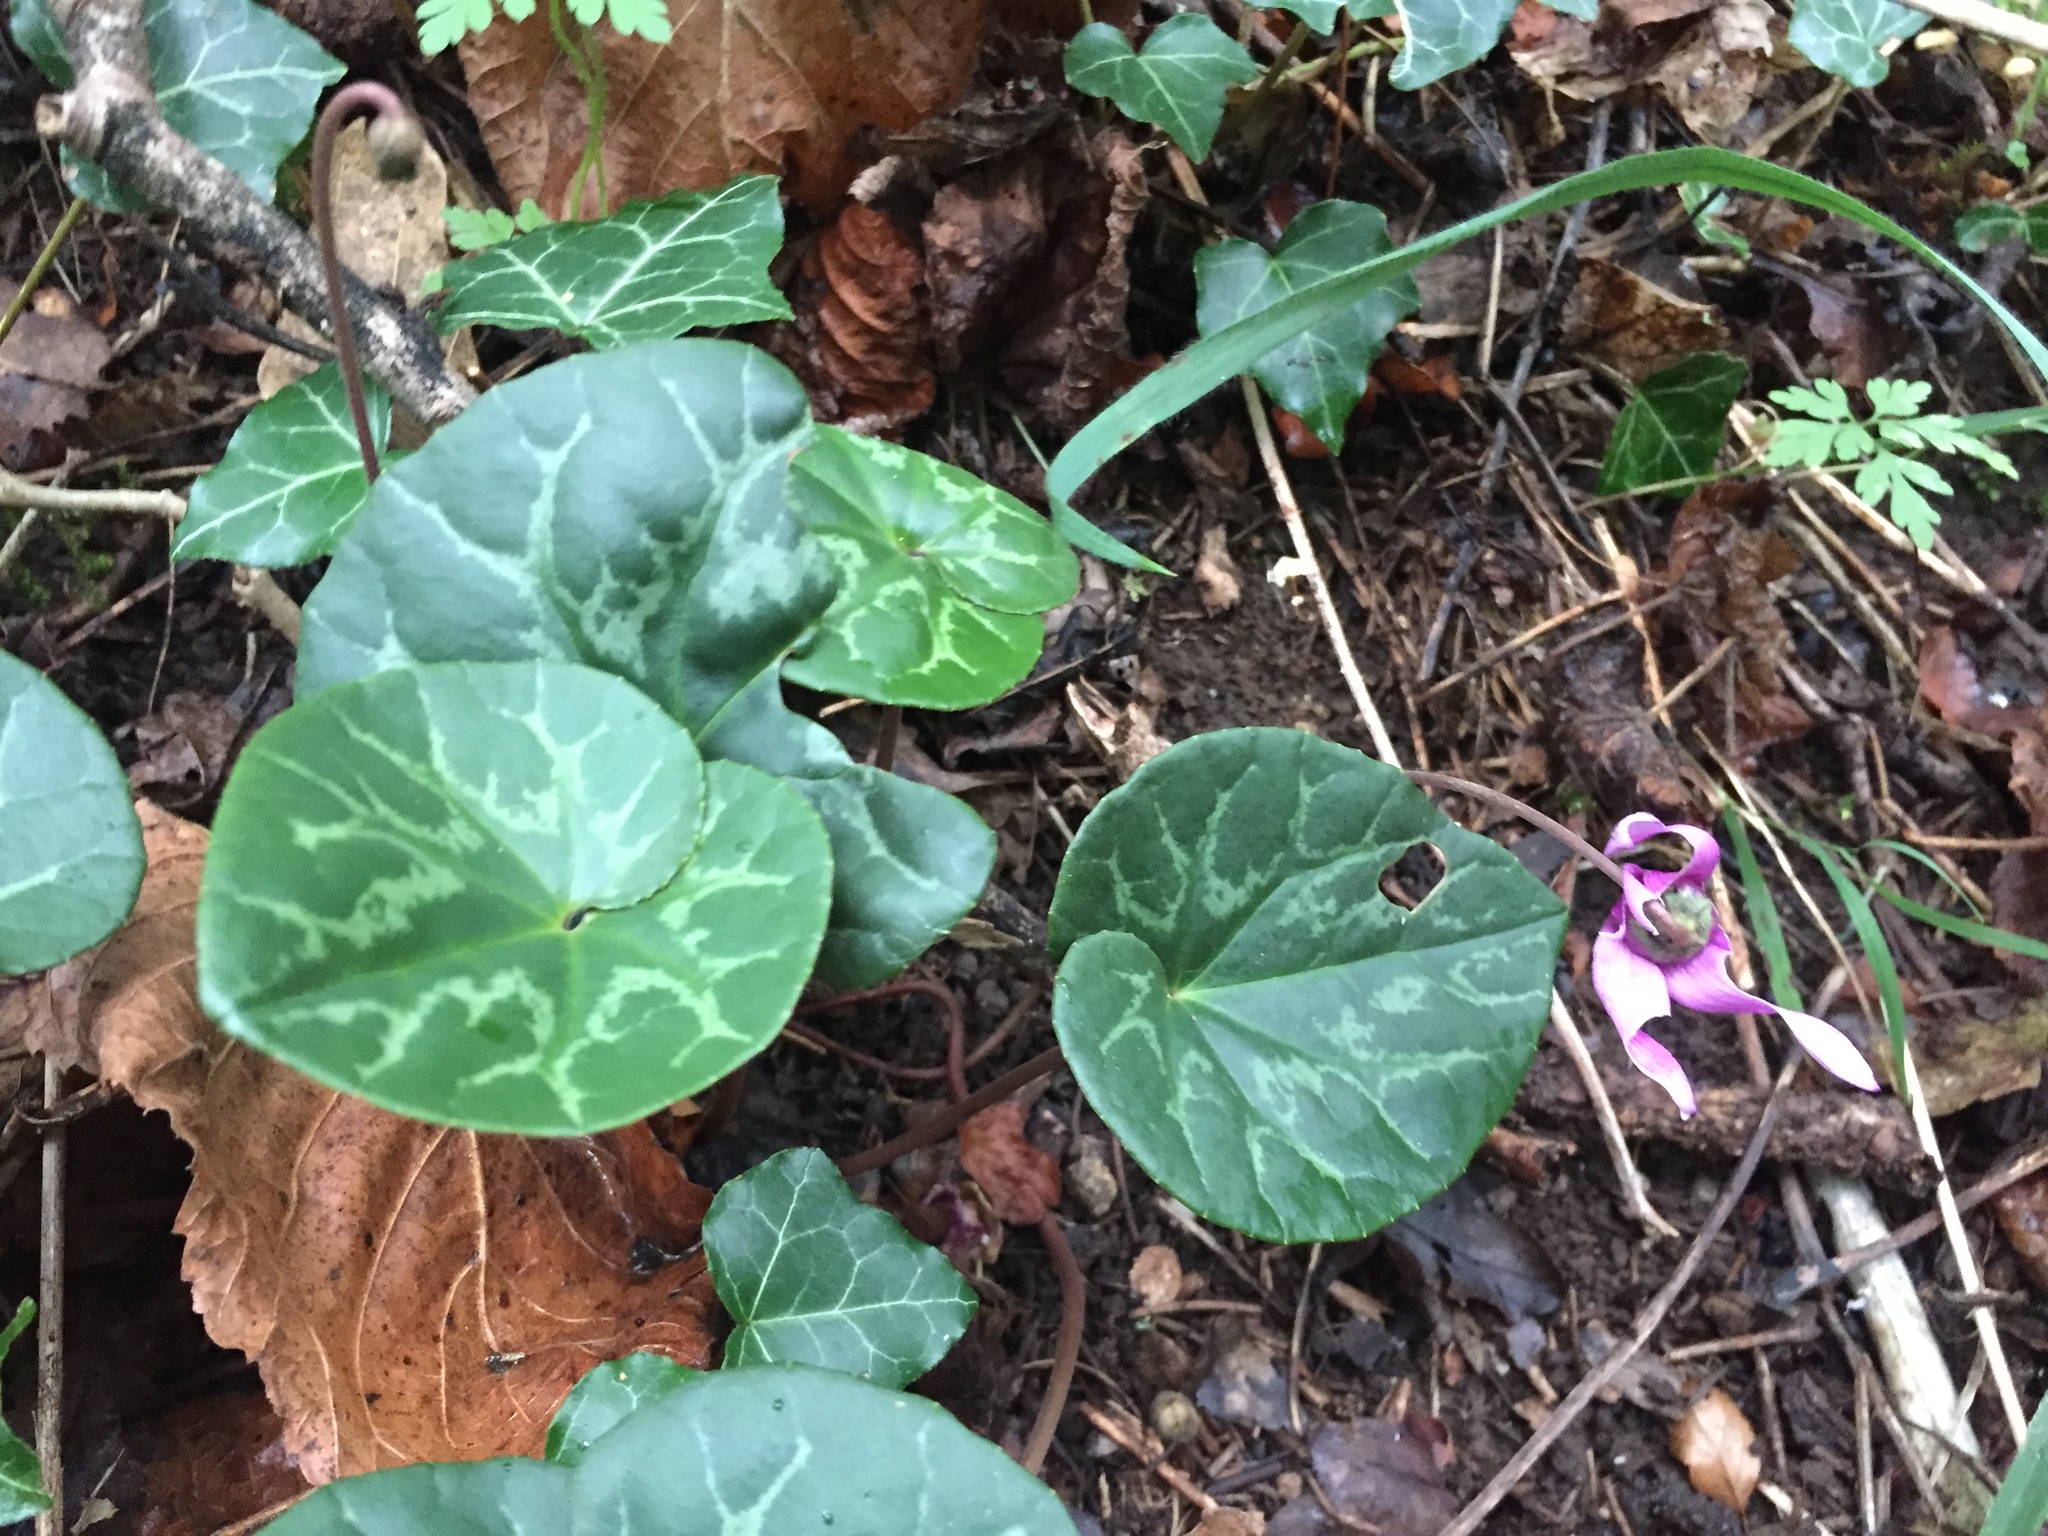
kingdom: Plantae
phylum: Tracheophyta
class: Magnoliopsida
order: Ericales
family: Primulaceae
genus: Cyclamen
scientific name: Cyclamen purpurascens
